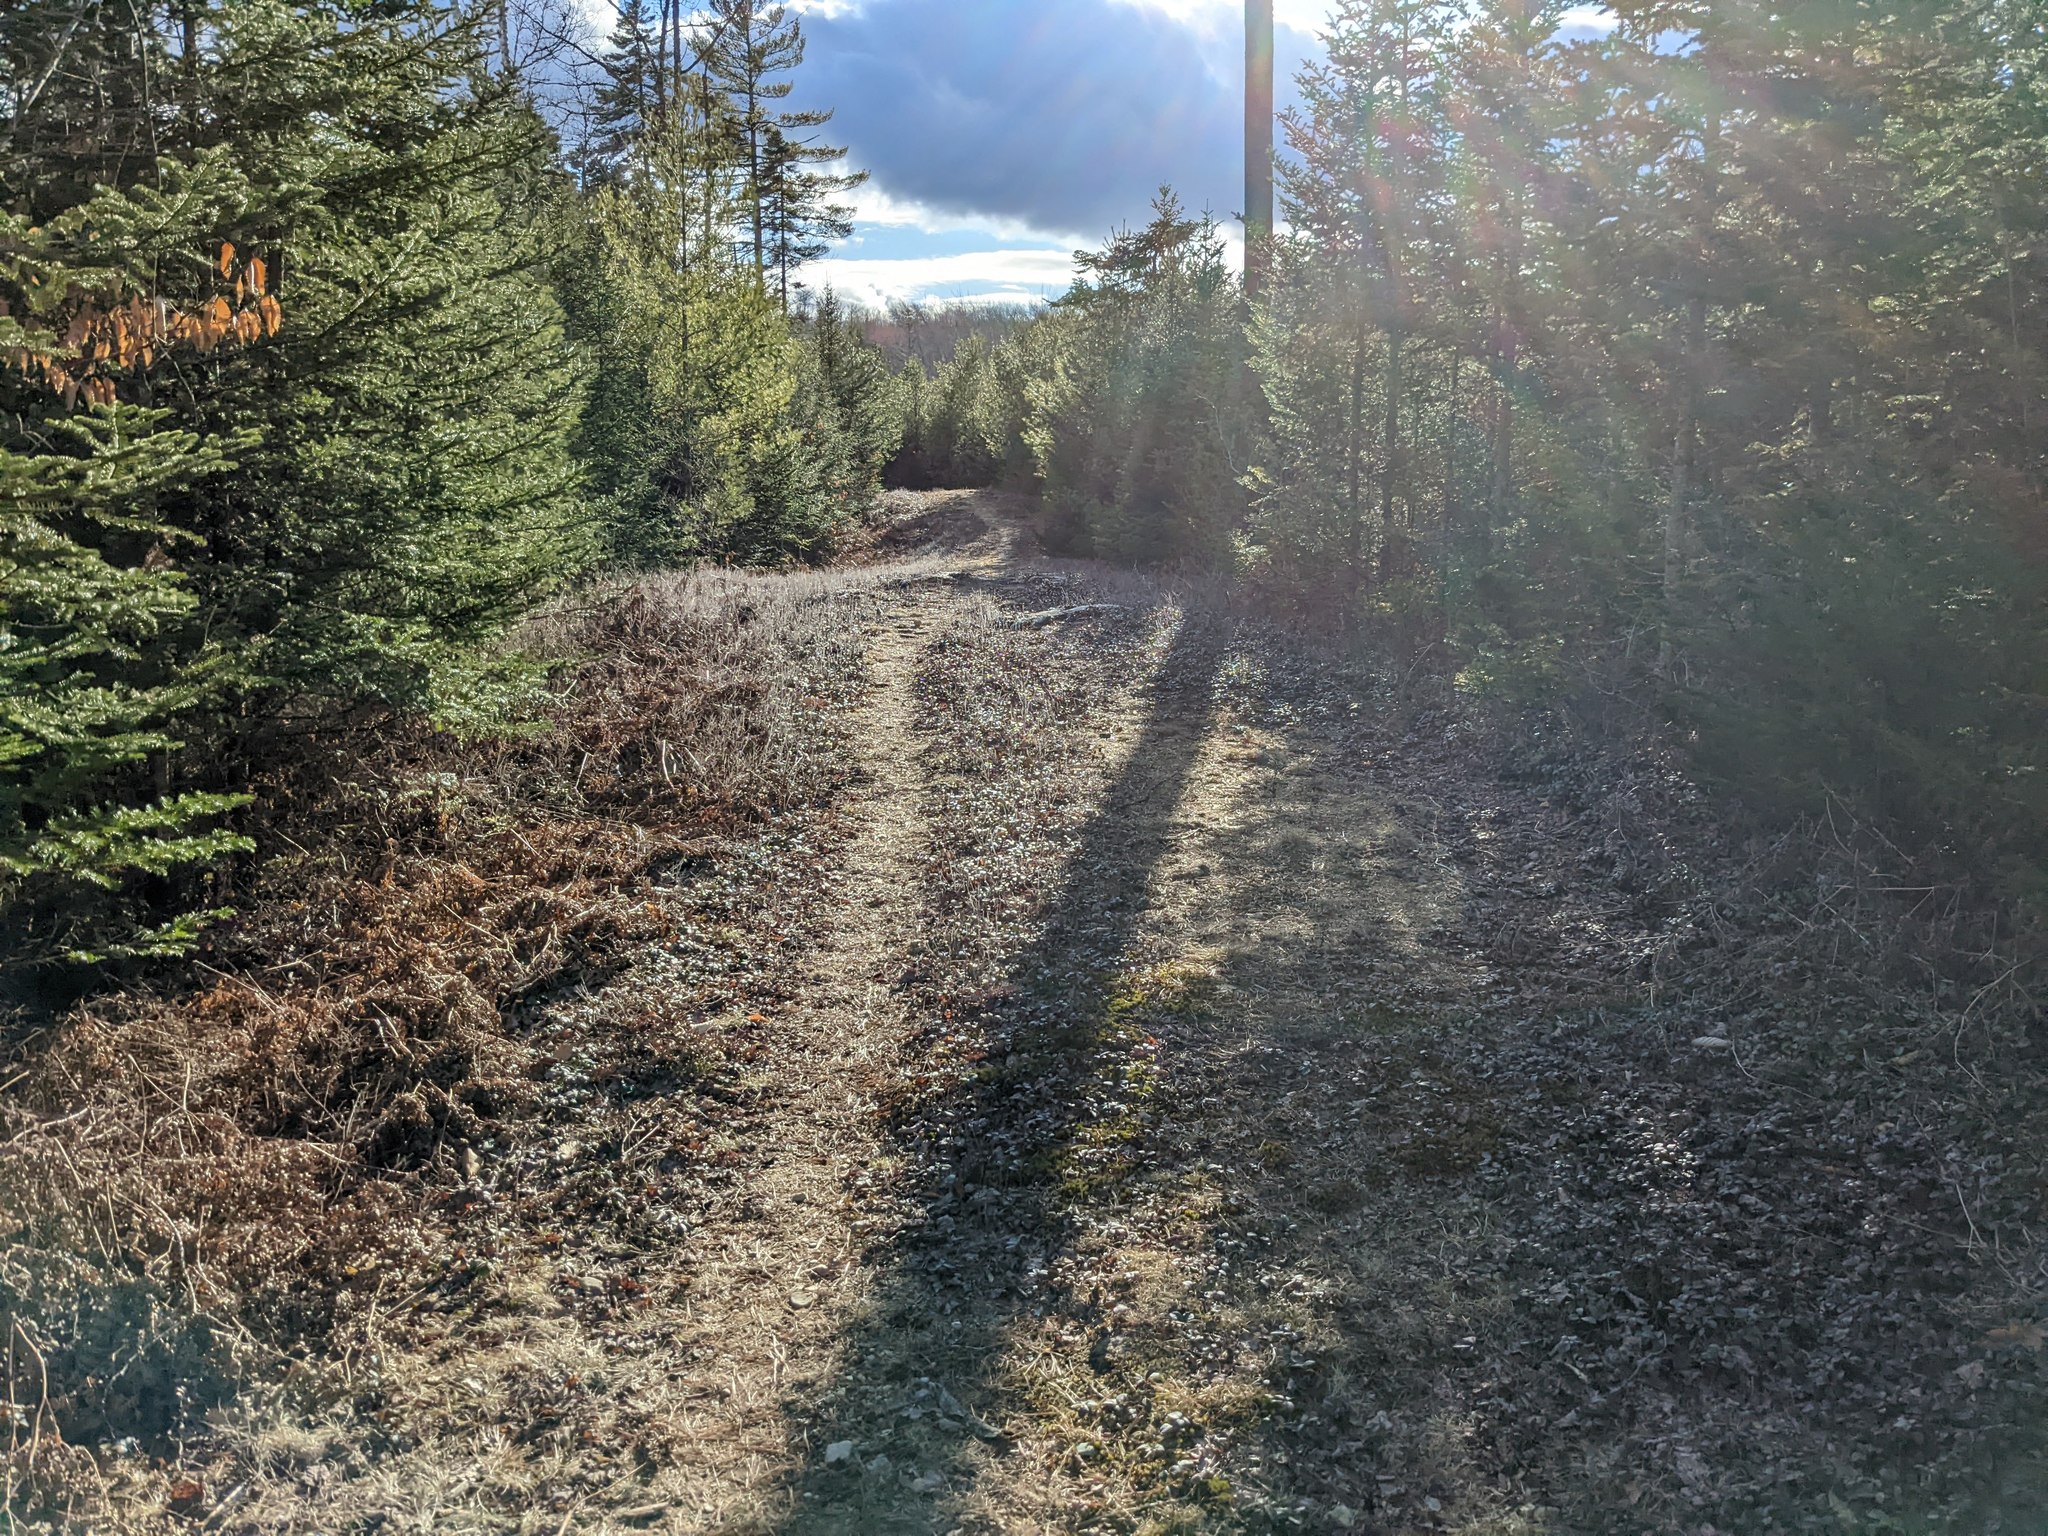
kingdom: Plantae
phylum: Tracheophyta
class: Magnoliopsida
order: Ericales
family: Ericaceae
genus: Gaultheria
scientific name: Gaultheria procumbens
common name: Checkerberry
